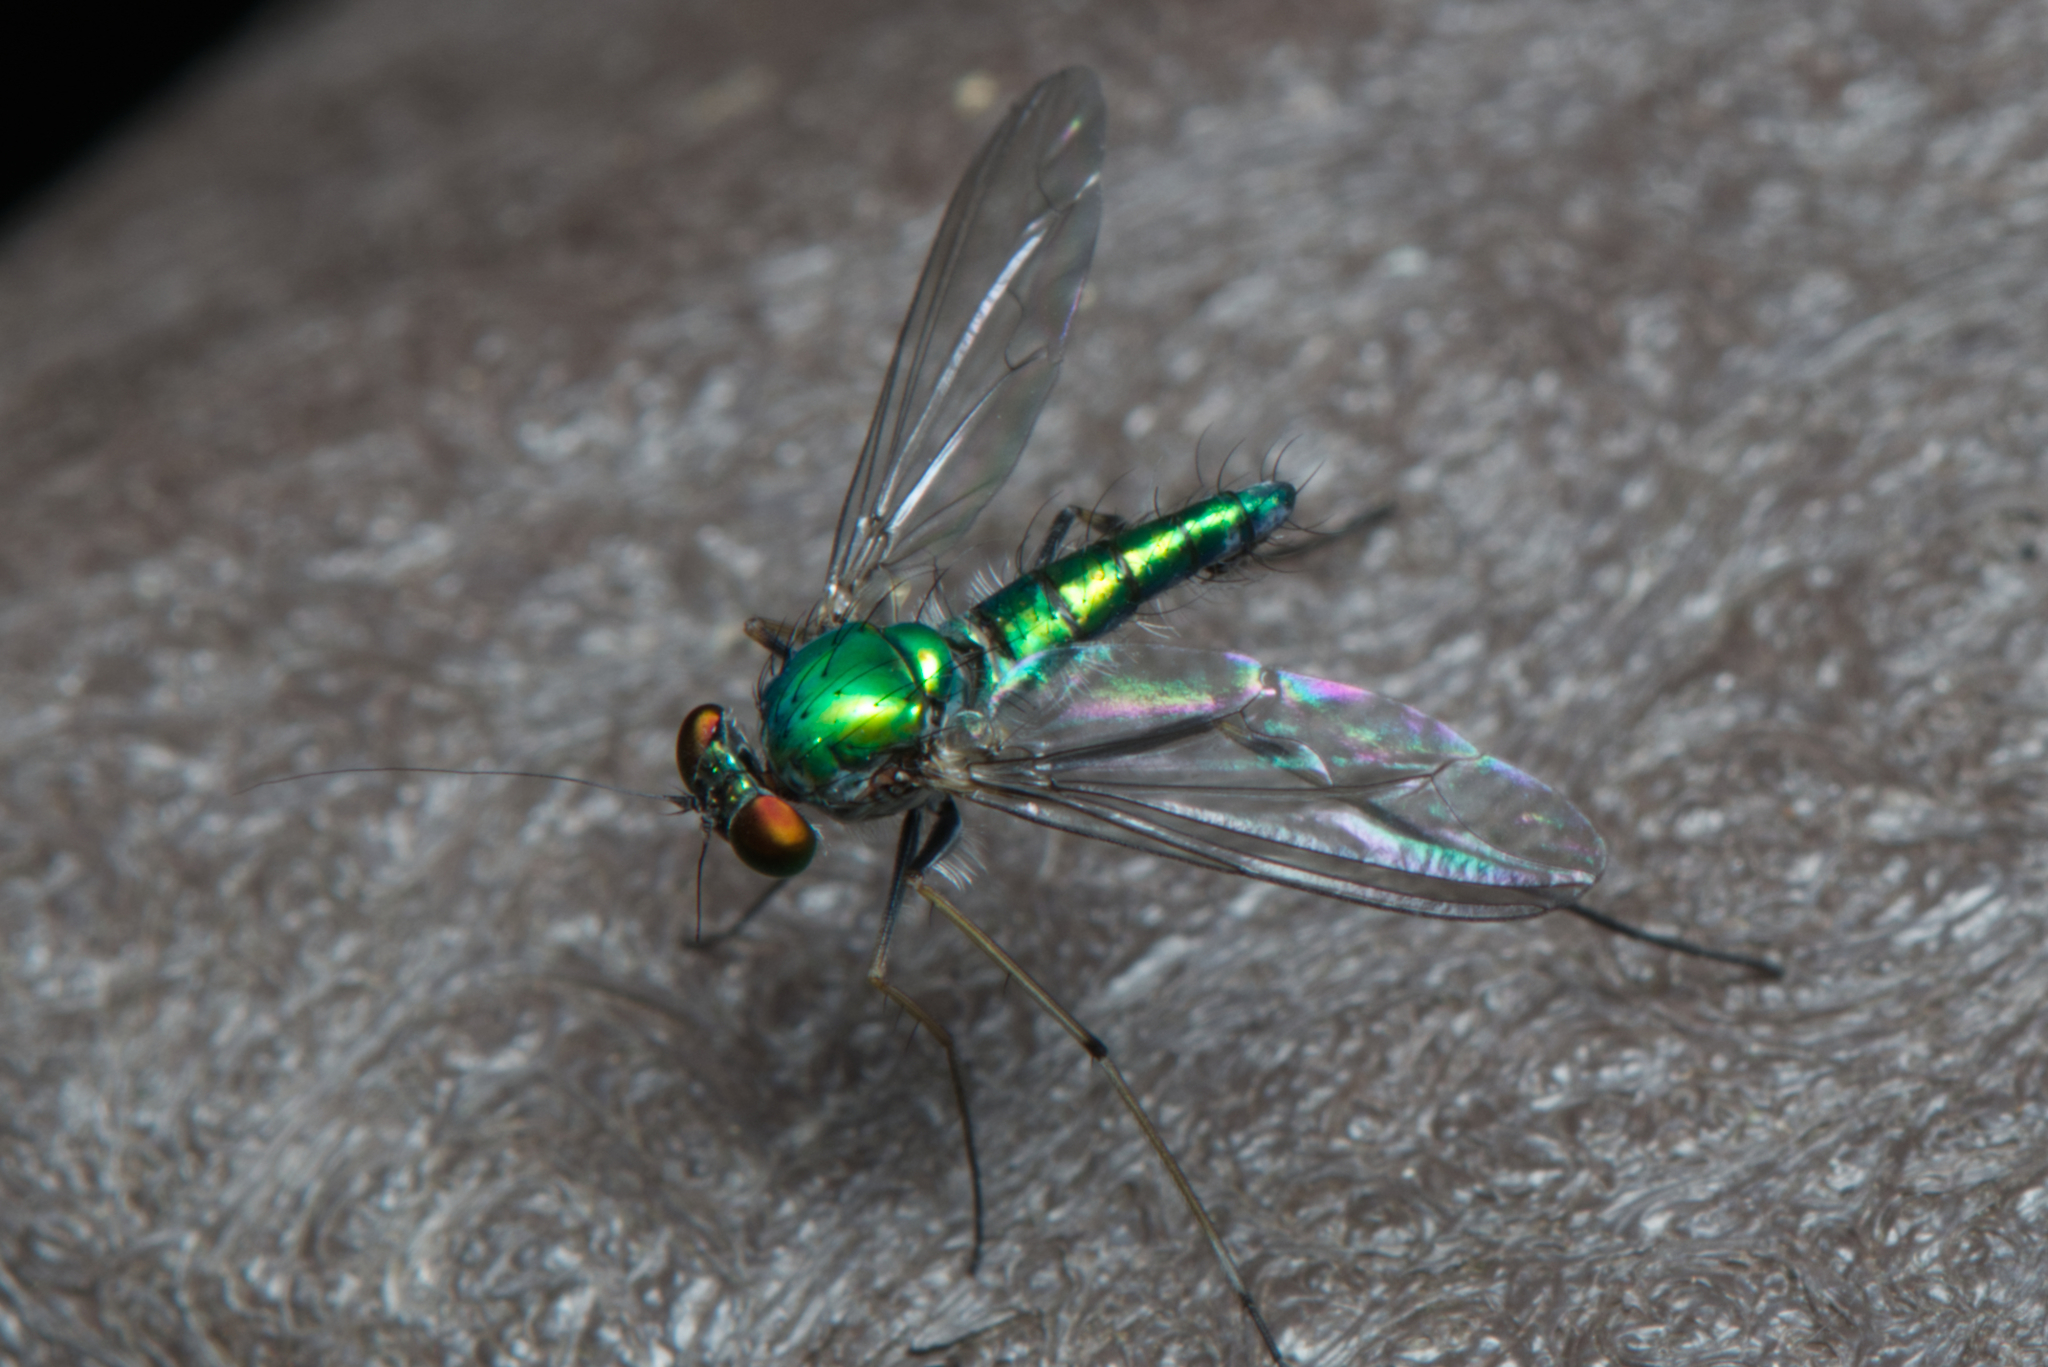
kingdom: Animalia
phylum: Arthropoda
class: Insecta
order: Diptera
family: Dolichopodidae
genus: Chrysosoma
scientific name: Chrysosoma leucopogon
